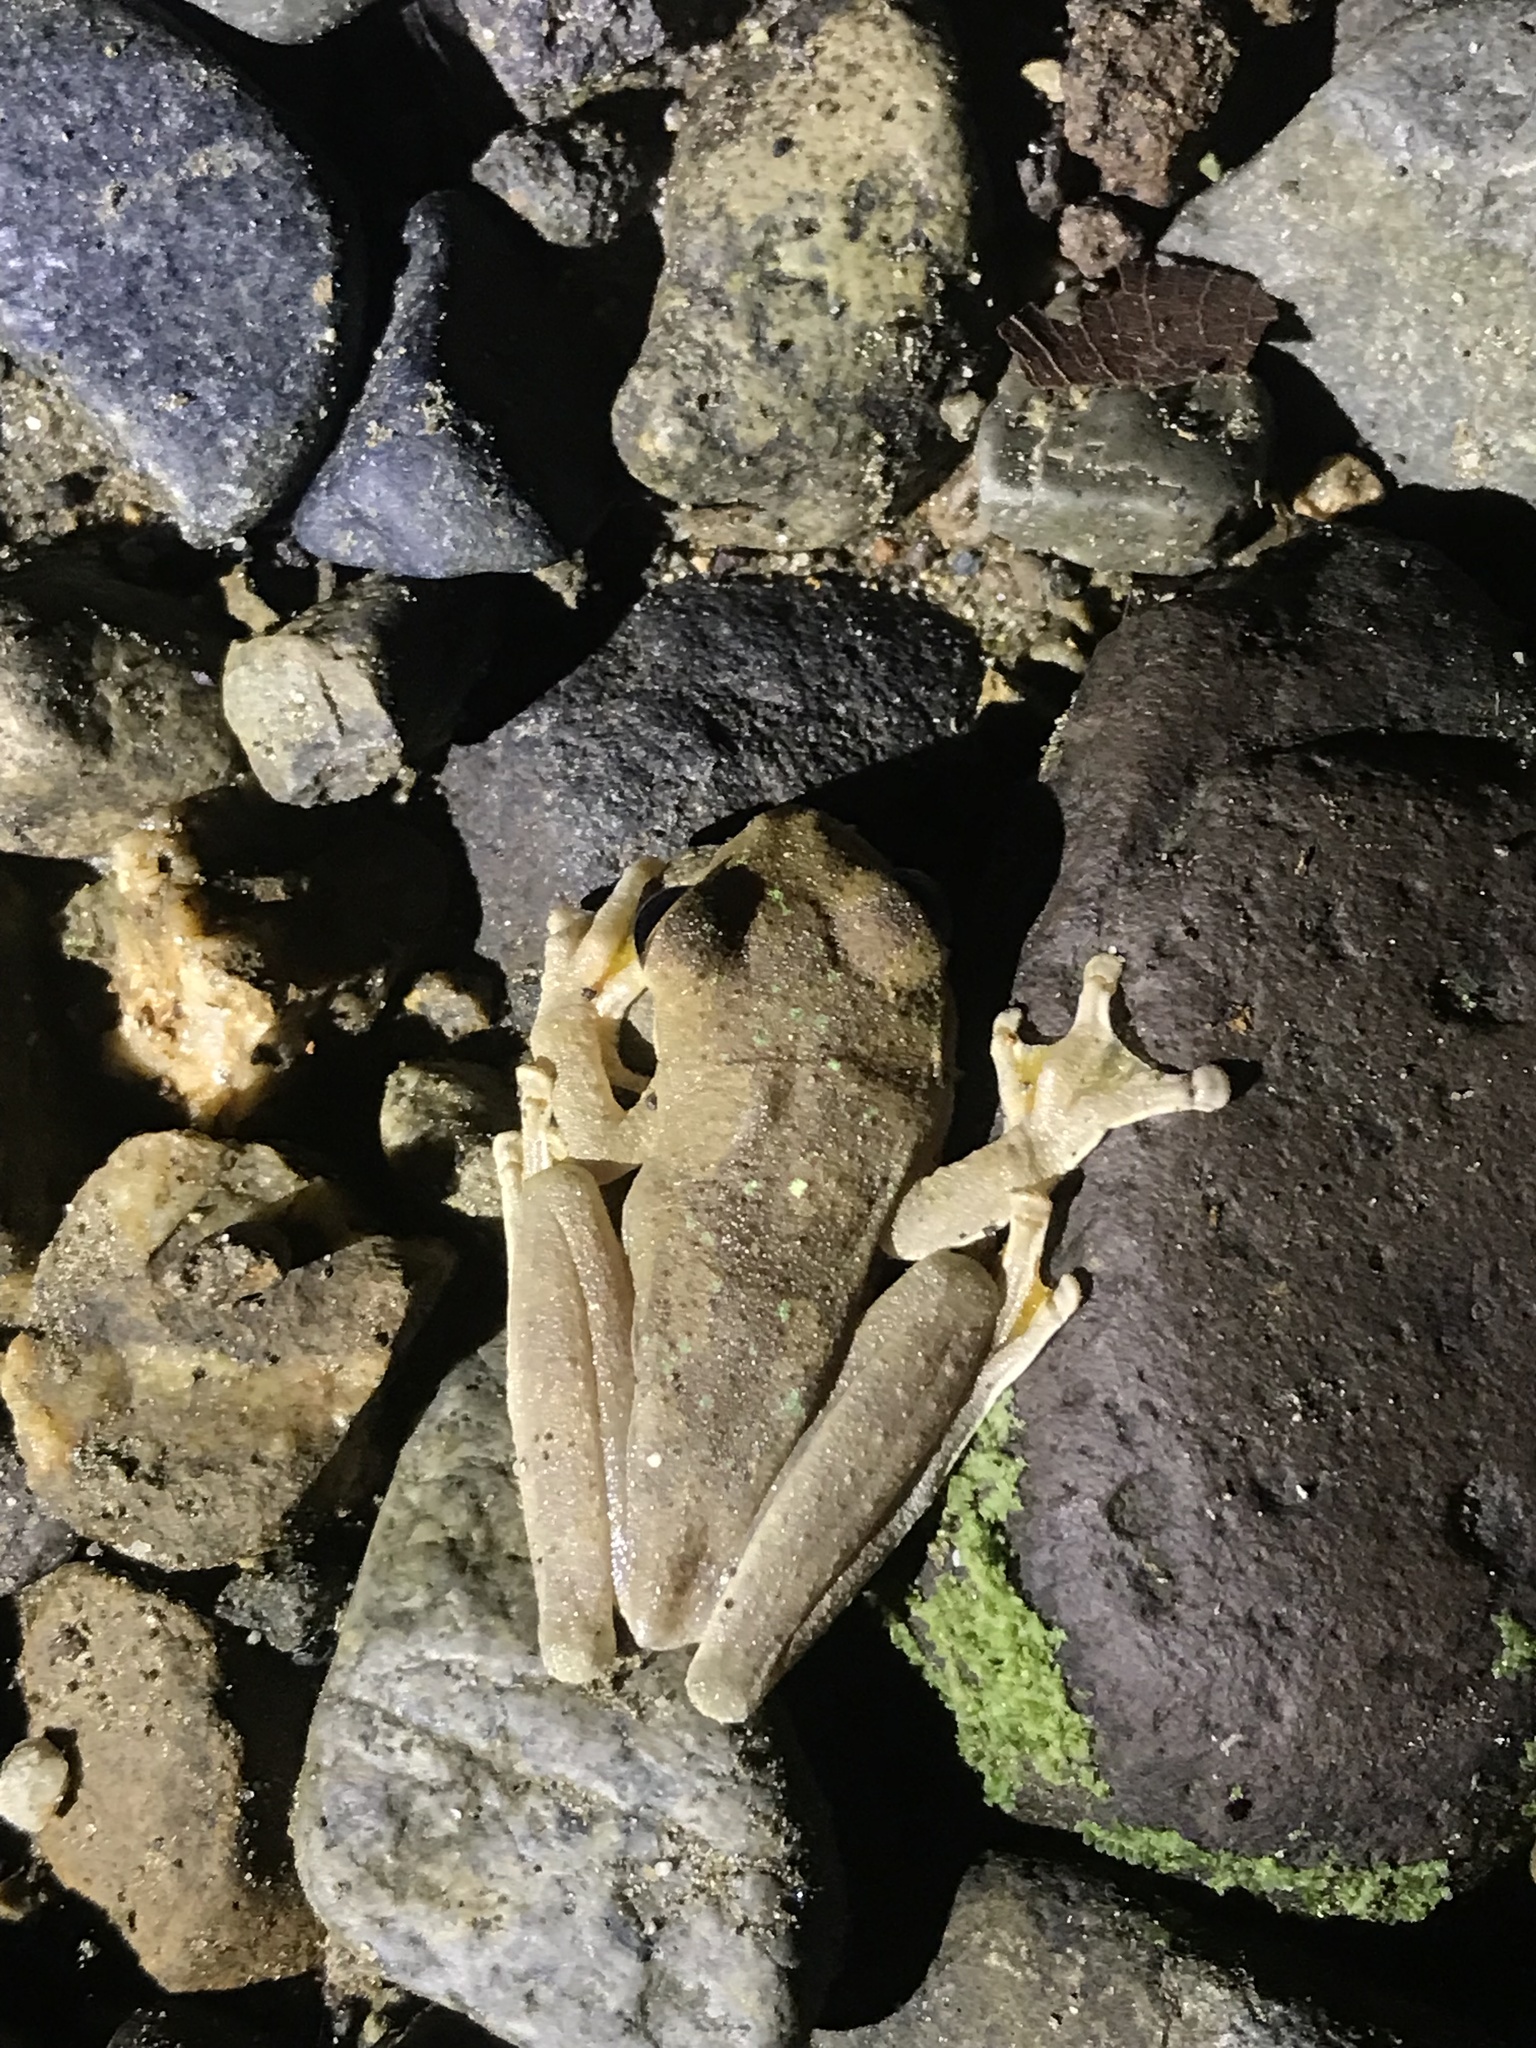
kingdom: Animalia
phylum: Chordata
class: Amphibia
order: Anura
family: Hylidae
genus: Smilisca
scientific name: Smilisca sila
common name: Panama cross-banded treefrog
